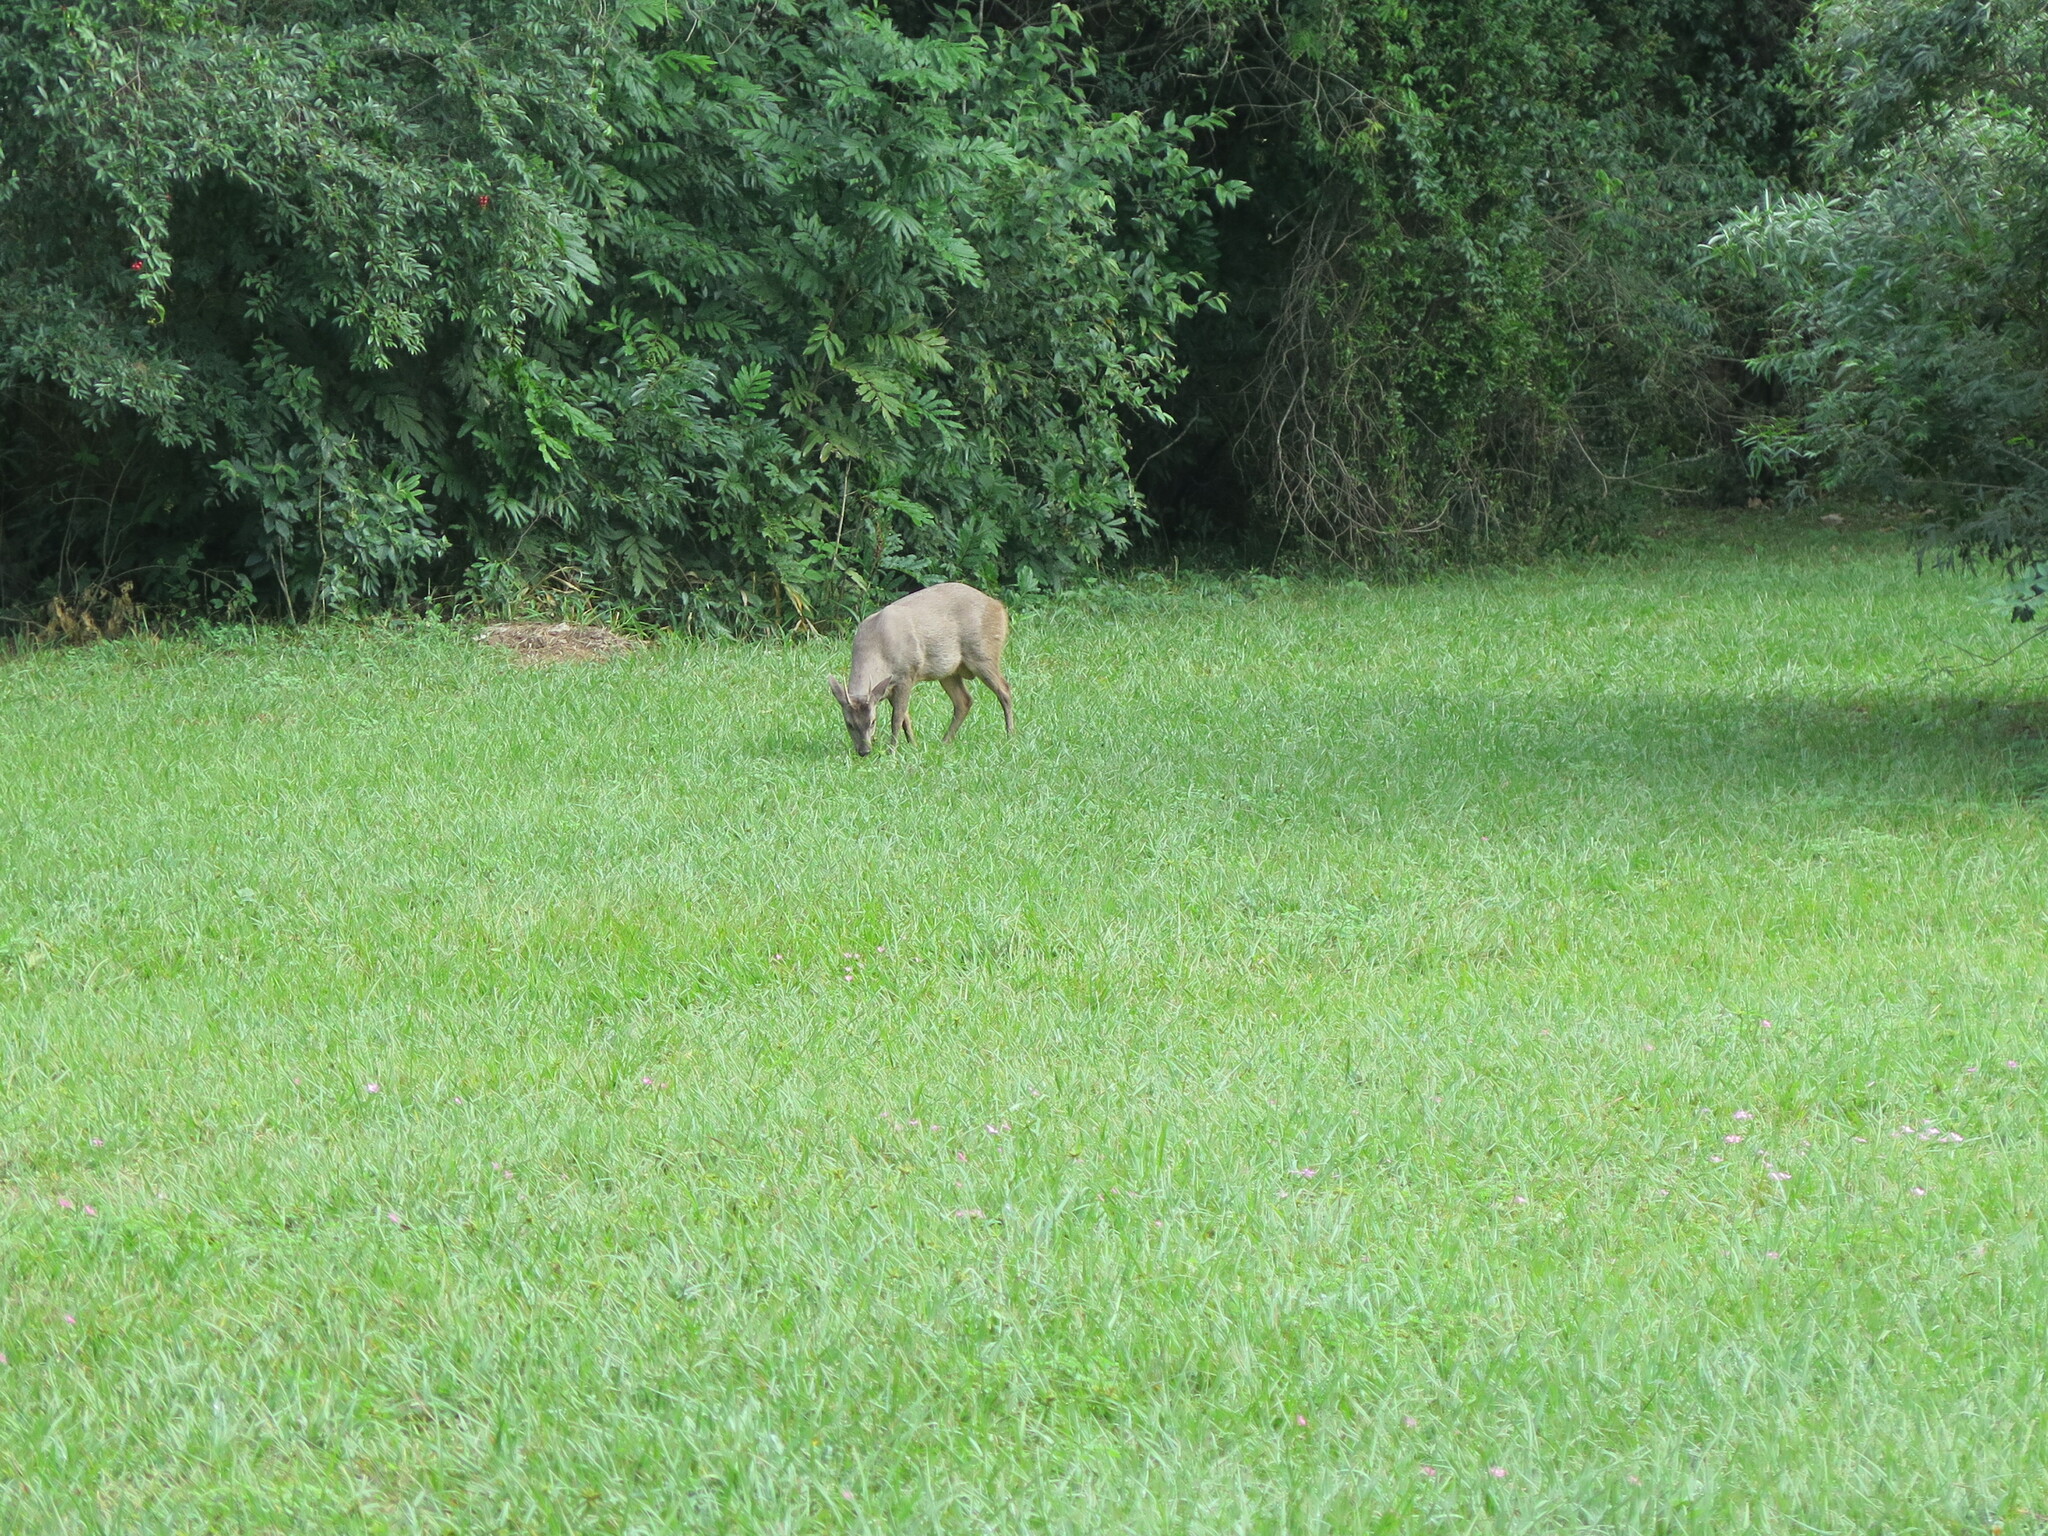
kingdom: Animalia
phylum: Chordata
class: Mammalia
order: Artiodactyla
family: Cervidae
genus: Mazama
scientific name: Mazama gouazoubira
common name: Gray brocket
